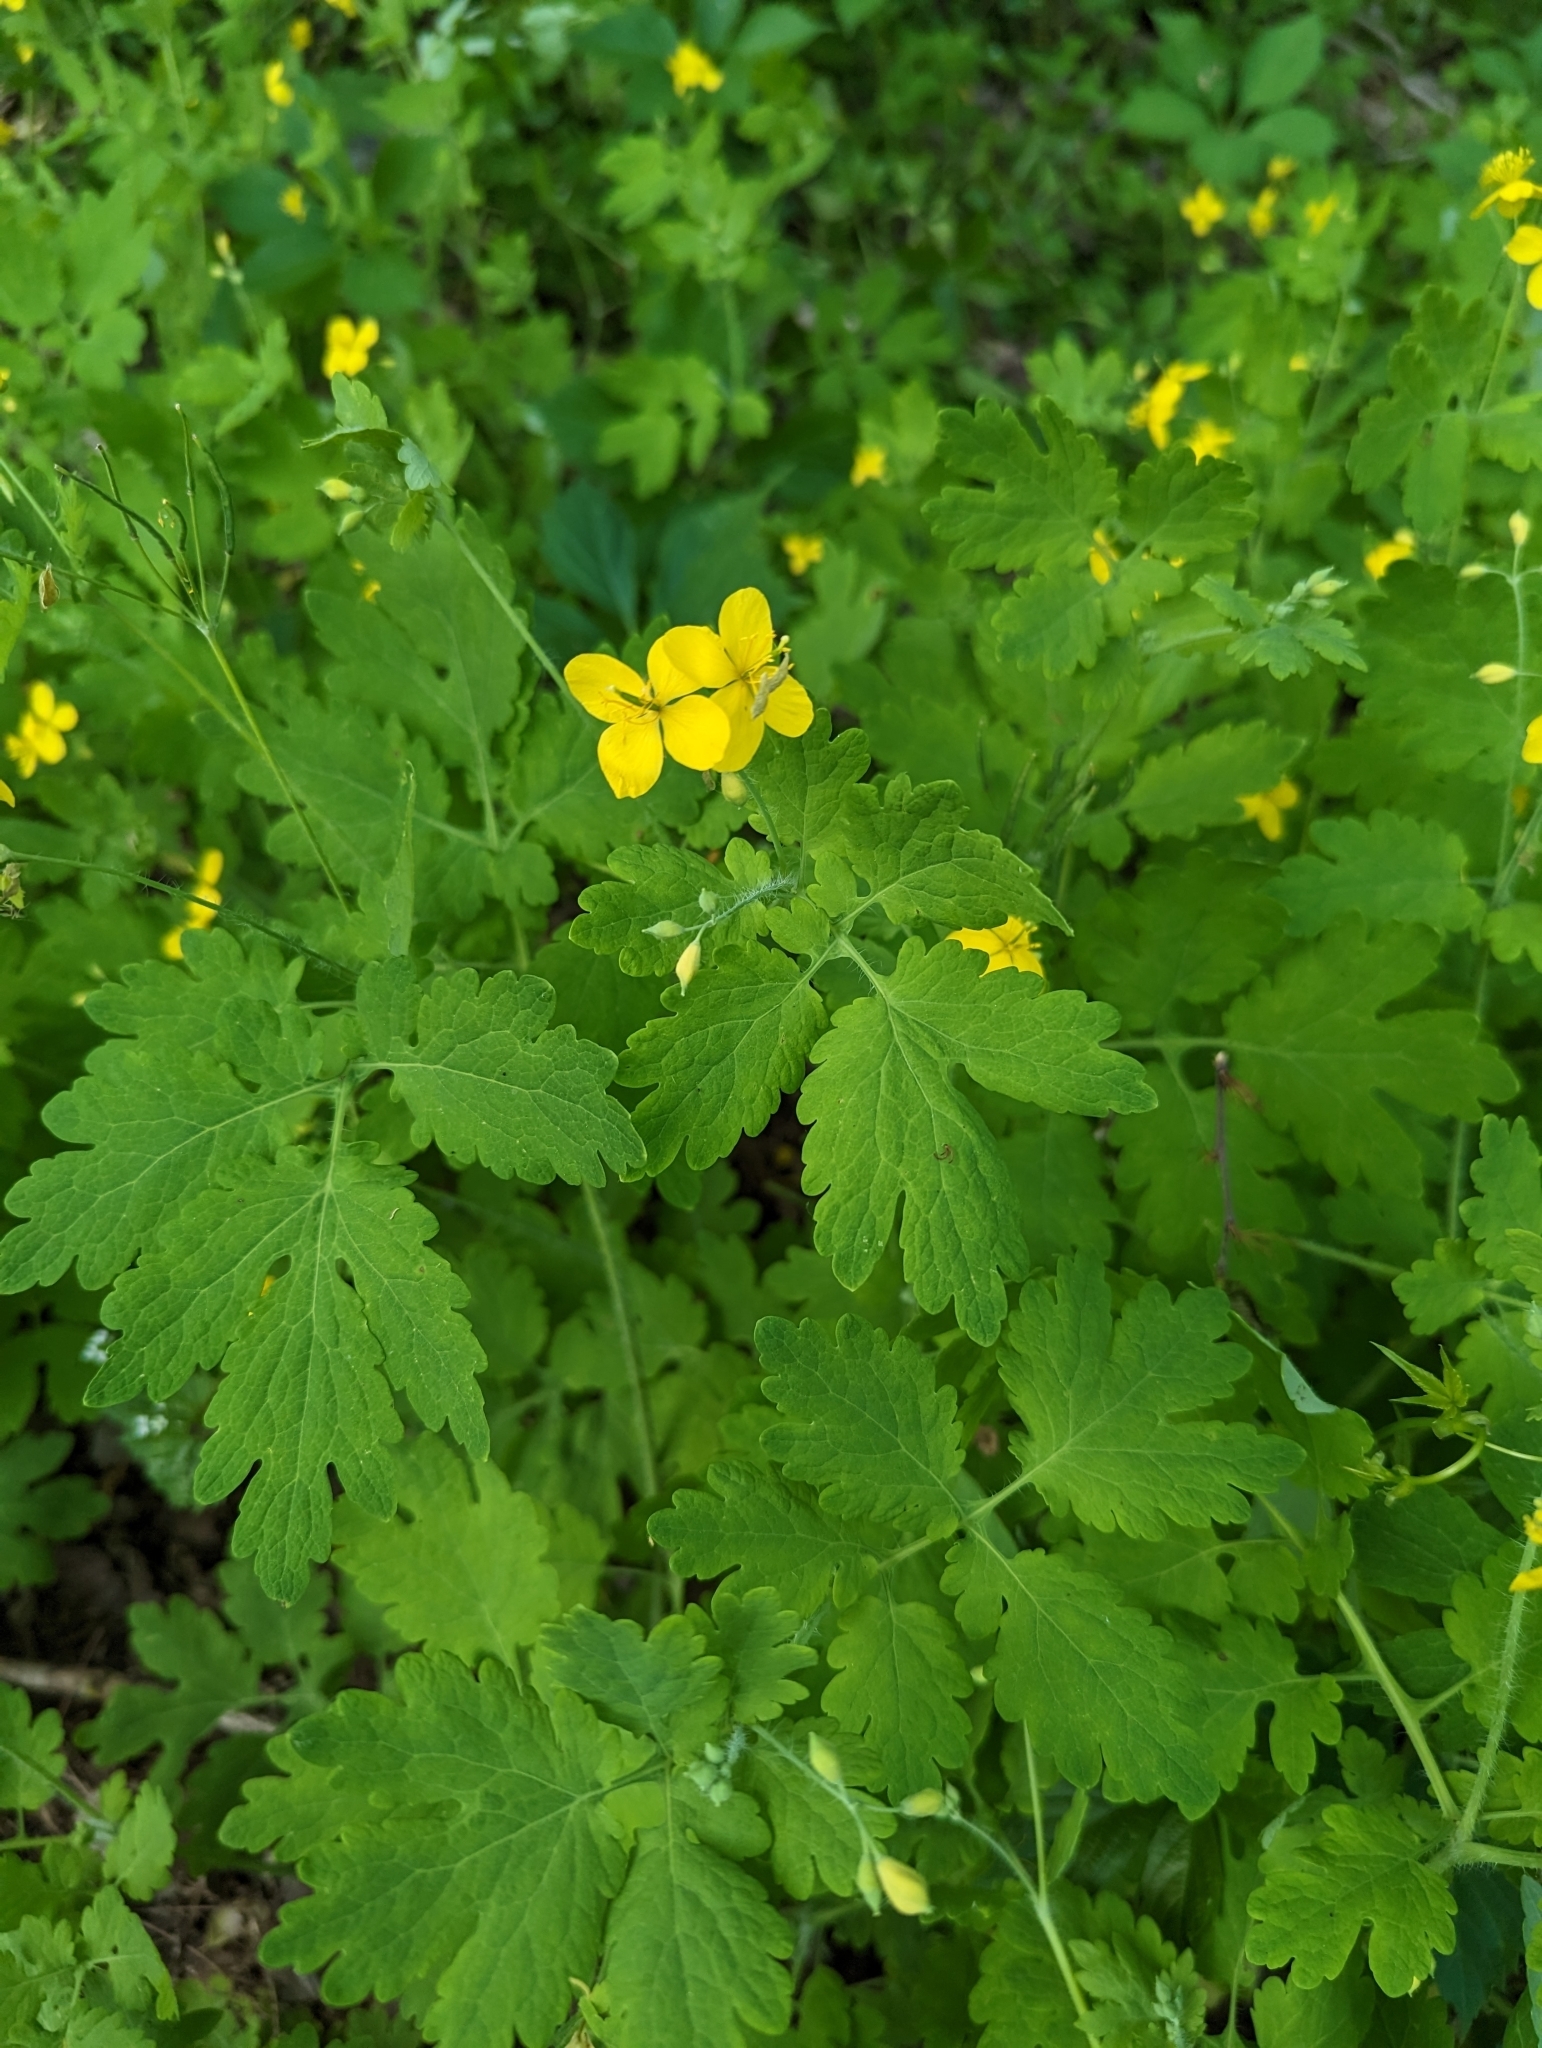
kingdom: Plantae
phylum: Tracheophyta
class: Magnoliopsida
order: Ranunculales
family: Papaveraceae
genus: Chelidonium
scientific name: Chelidonium majus
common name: Greater celandine
